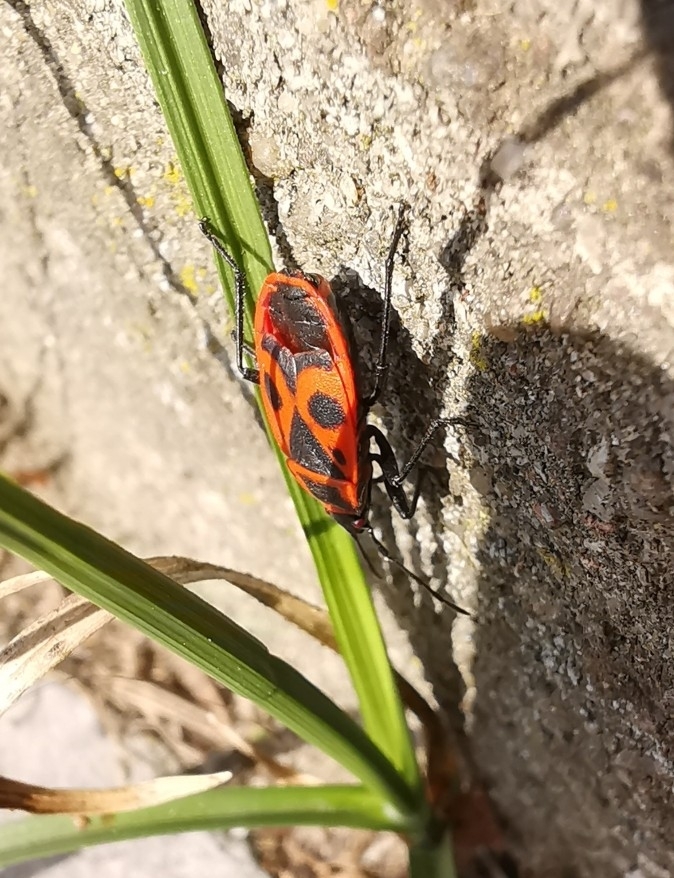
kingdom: Animalia
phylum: Arthropoda
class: Insecta
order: Hemiptera
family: Pyrrhocoridae
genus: Pyrrhocoris
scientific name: Pyrrhocoris apterus
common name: Firebug
